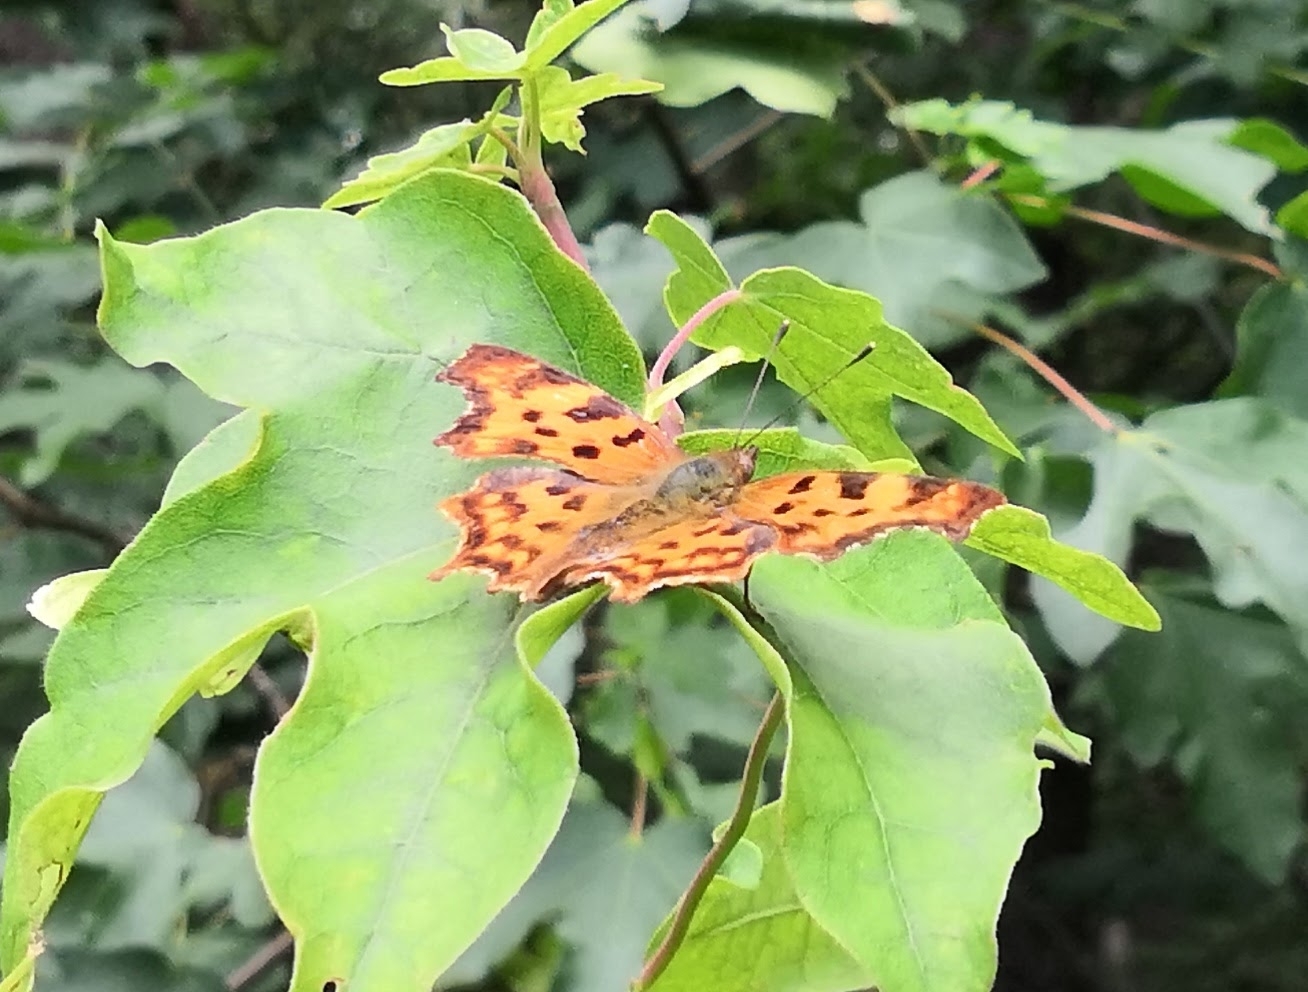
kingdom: Animalia
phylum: Arthropoda
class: Insecta
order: Lepidoptera
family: Nymphalidae
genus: Polygonia
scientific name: Polygonia c-album
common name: Comma
